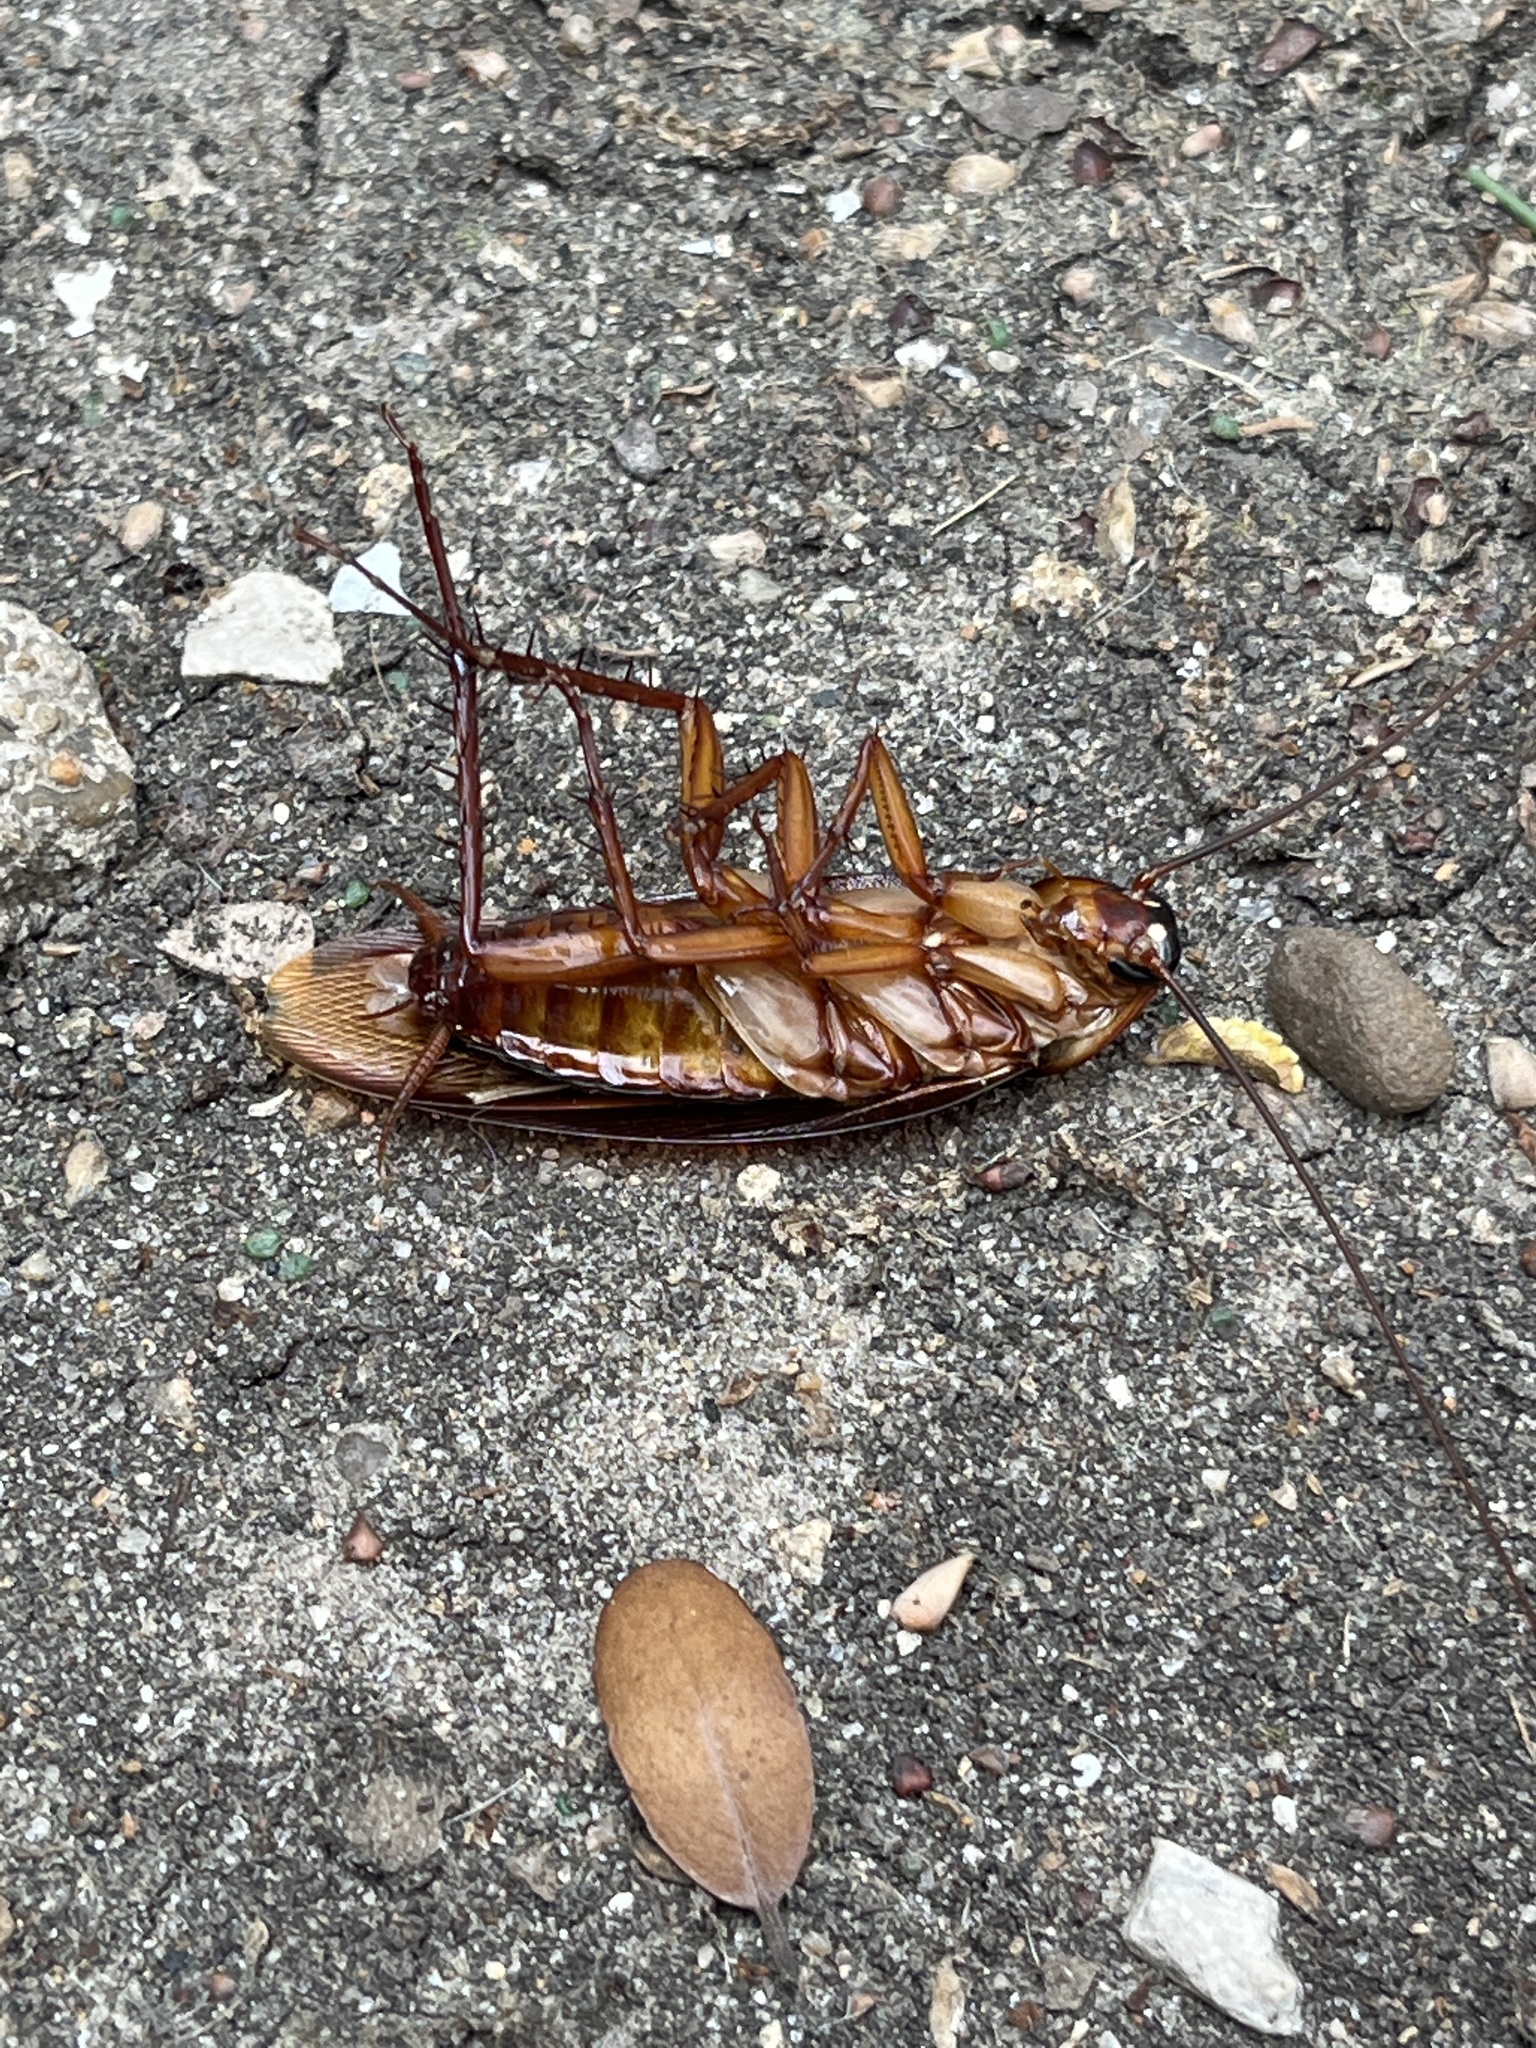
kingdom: Animalia
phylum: Arthropoda
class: Insecta
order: Blattodea
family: Blattidae
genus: Periplaneta
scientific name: Periplaneta americana
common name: American cockroach
